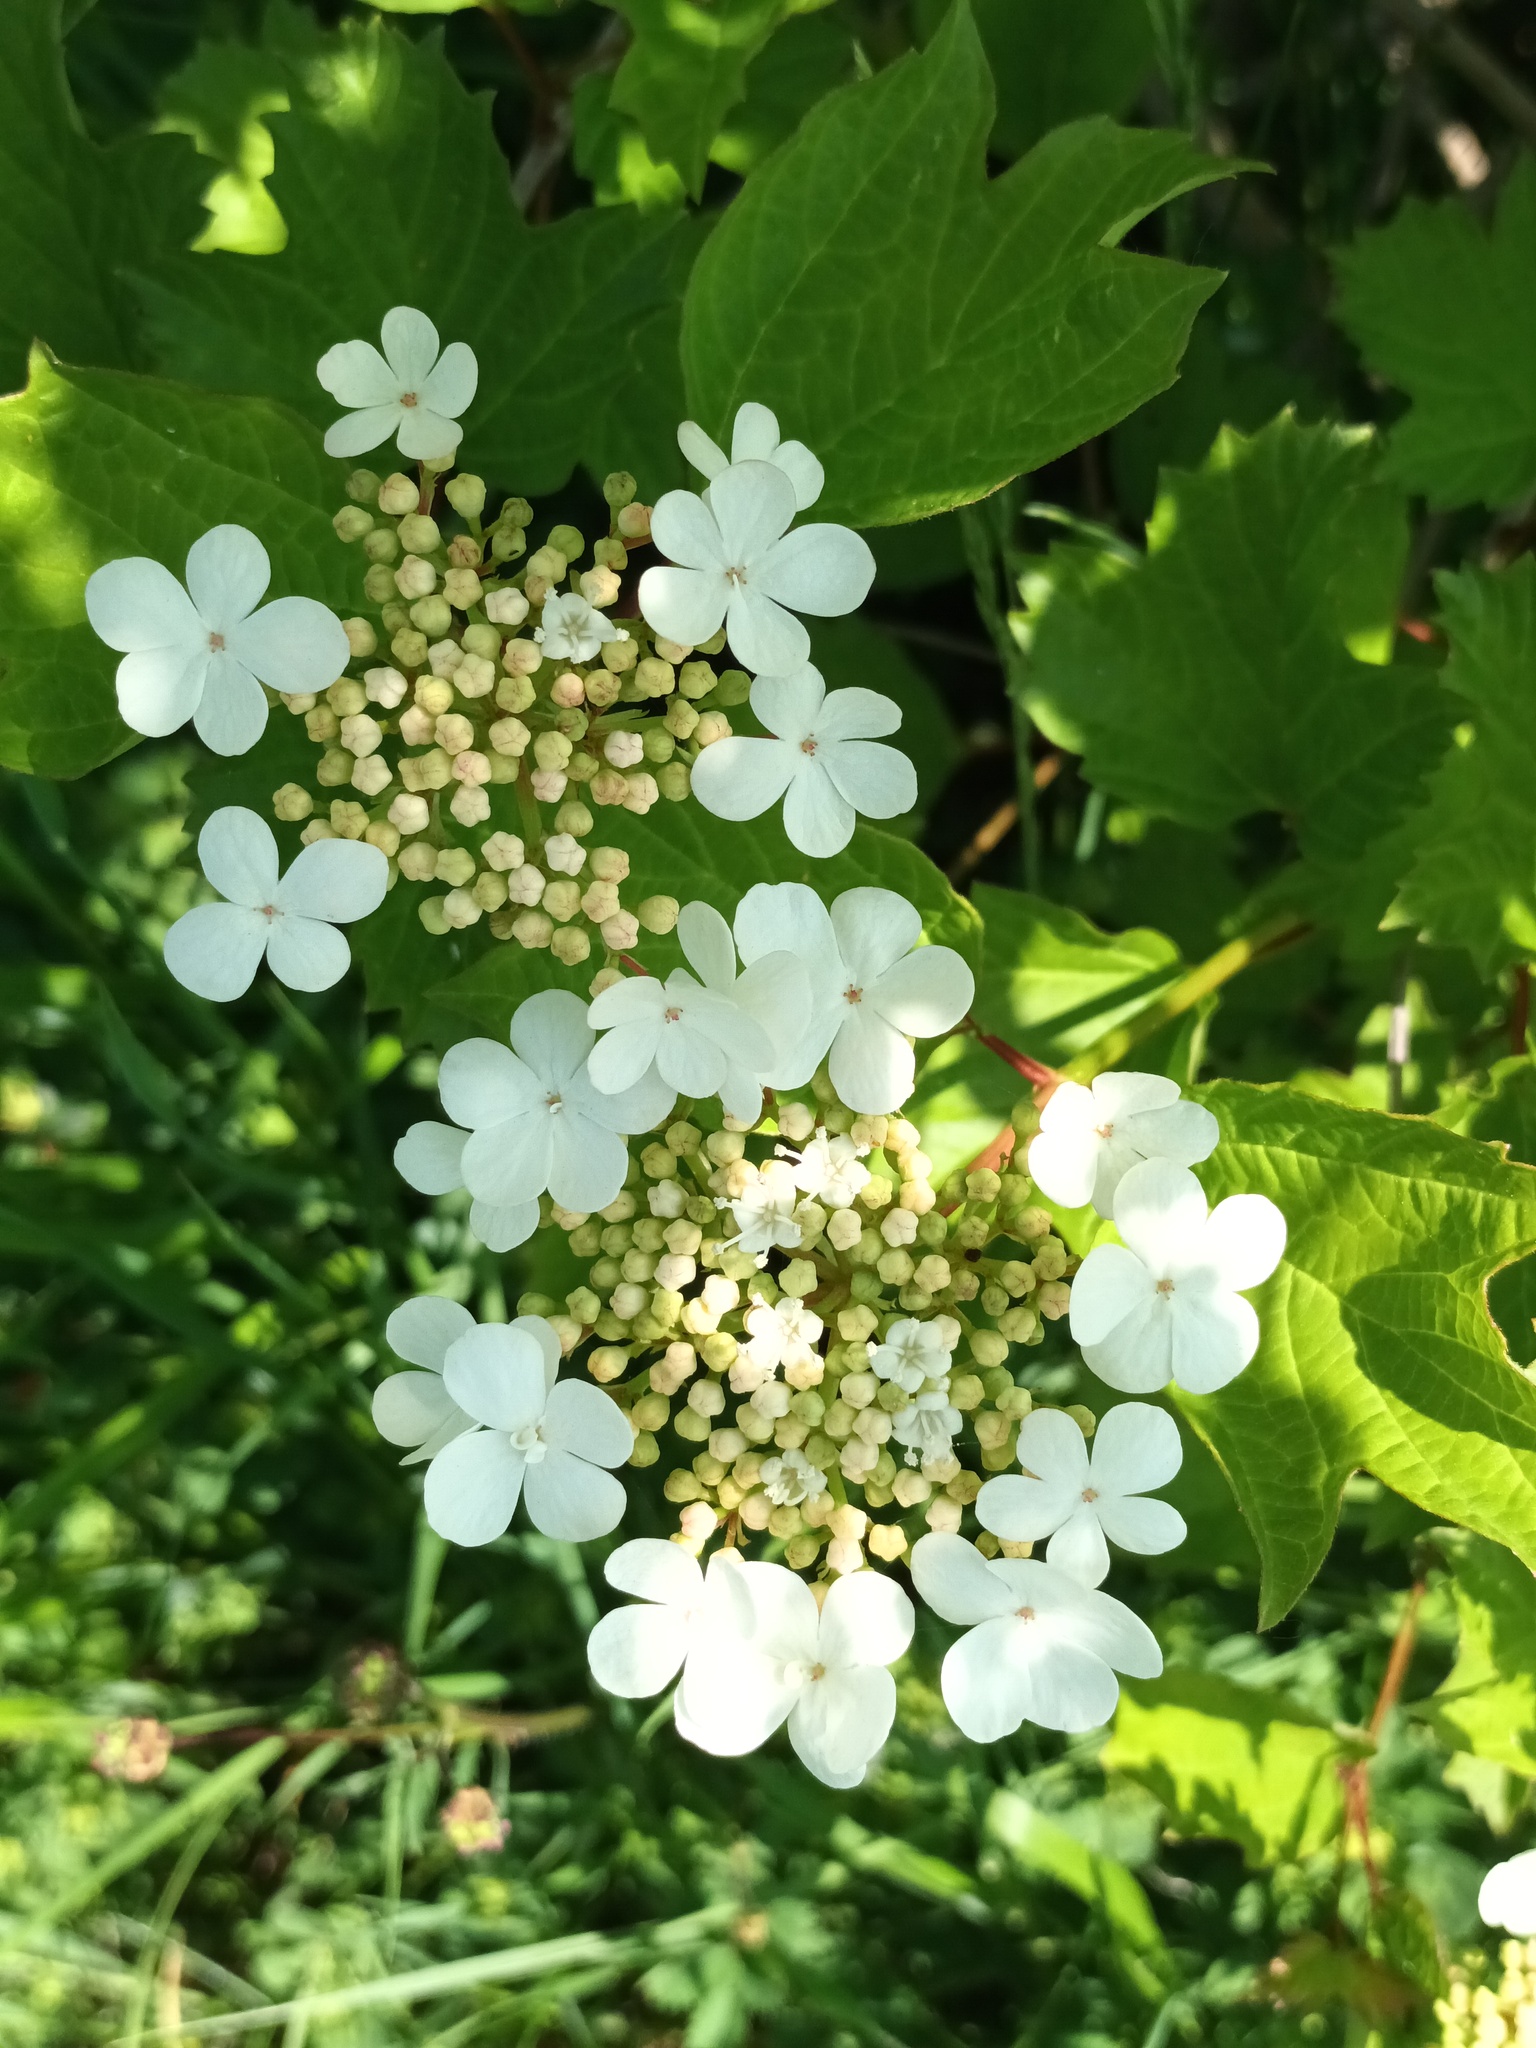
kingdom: Plantae
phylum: Tracheophyta
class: Magnoliopsida
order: Dipsacales
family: Viburnaceae
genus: Viburnum
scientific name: Viburnum opulus
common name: Guelder-rose
